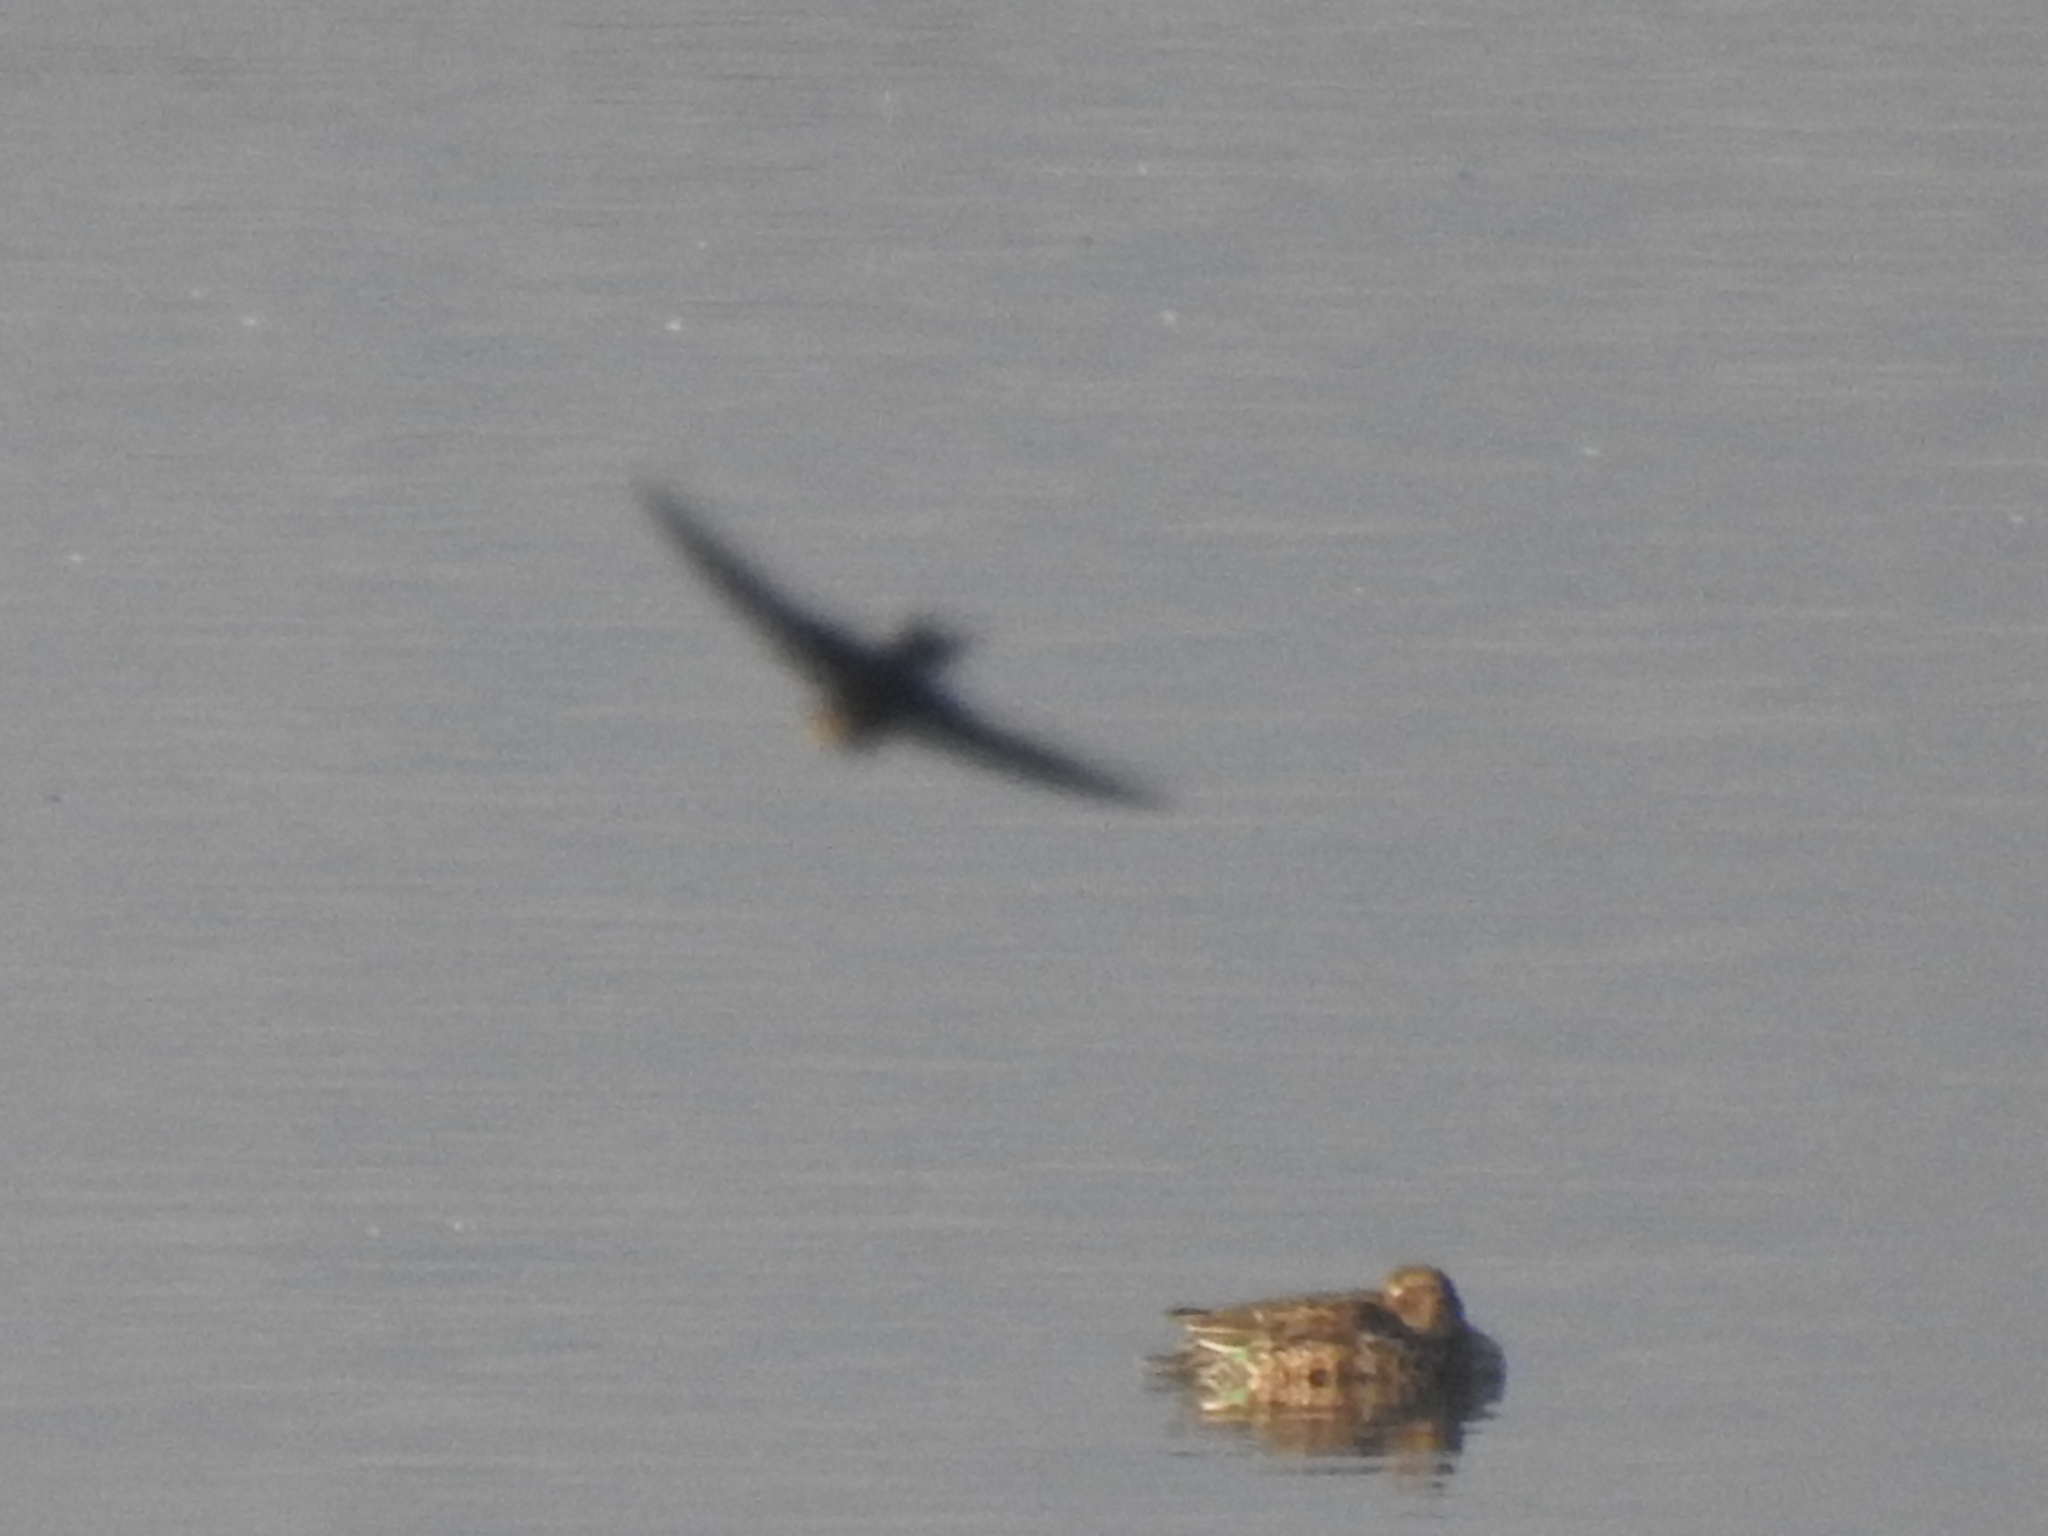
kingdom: Animalia
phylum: Chordata
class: Aves
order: Anseriformes
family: Anatidae
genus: Anas
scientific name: Anas crecca
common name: Eurasian teal
